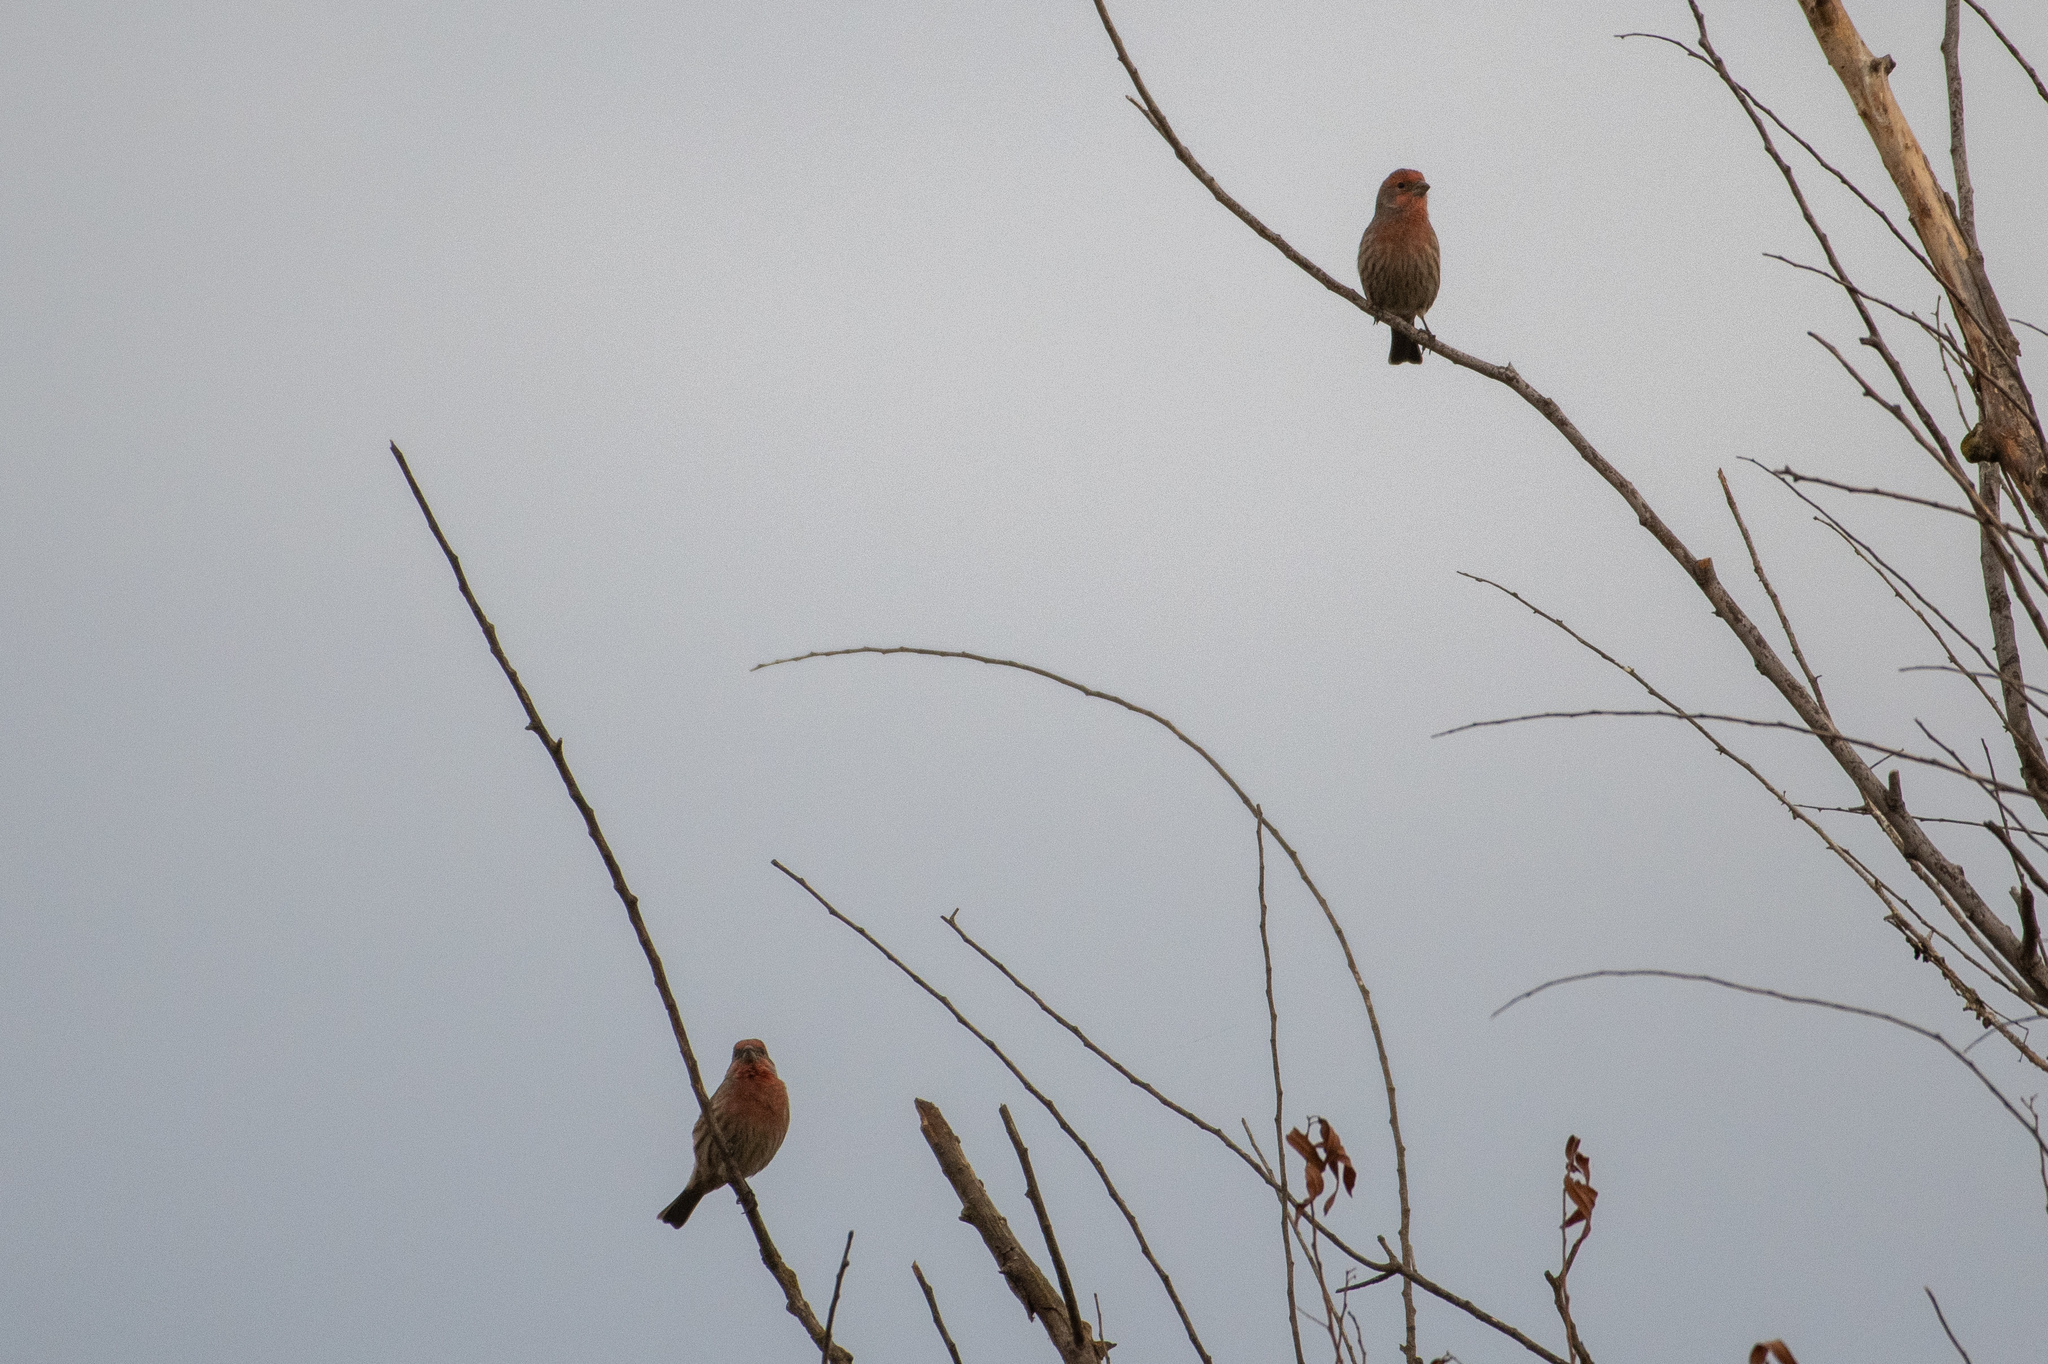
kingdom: Animalia
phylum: Chordata
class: Aves
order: Passeriformes
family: Fringillidae
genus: Haemorhous
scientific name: Haemorhous mexicanus
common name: House finch
